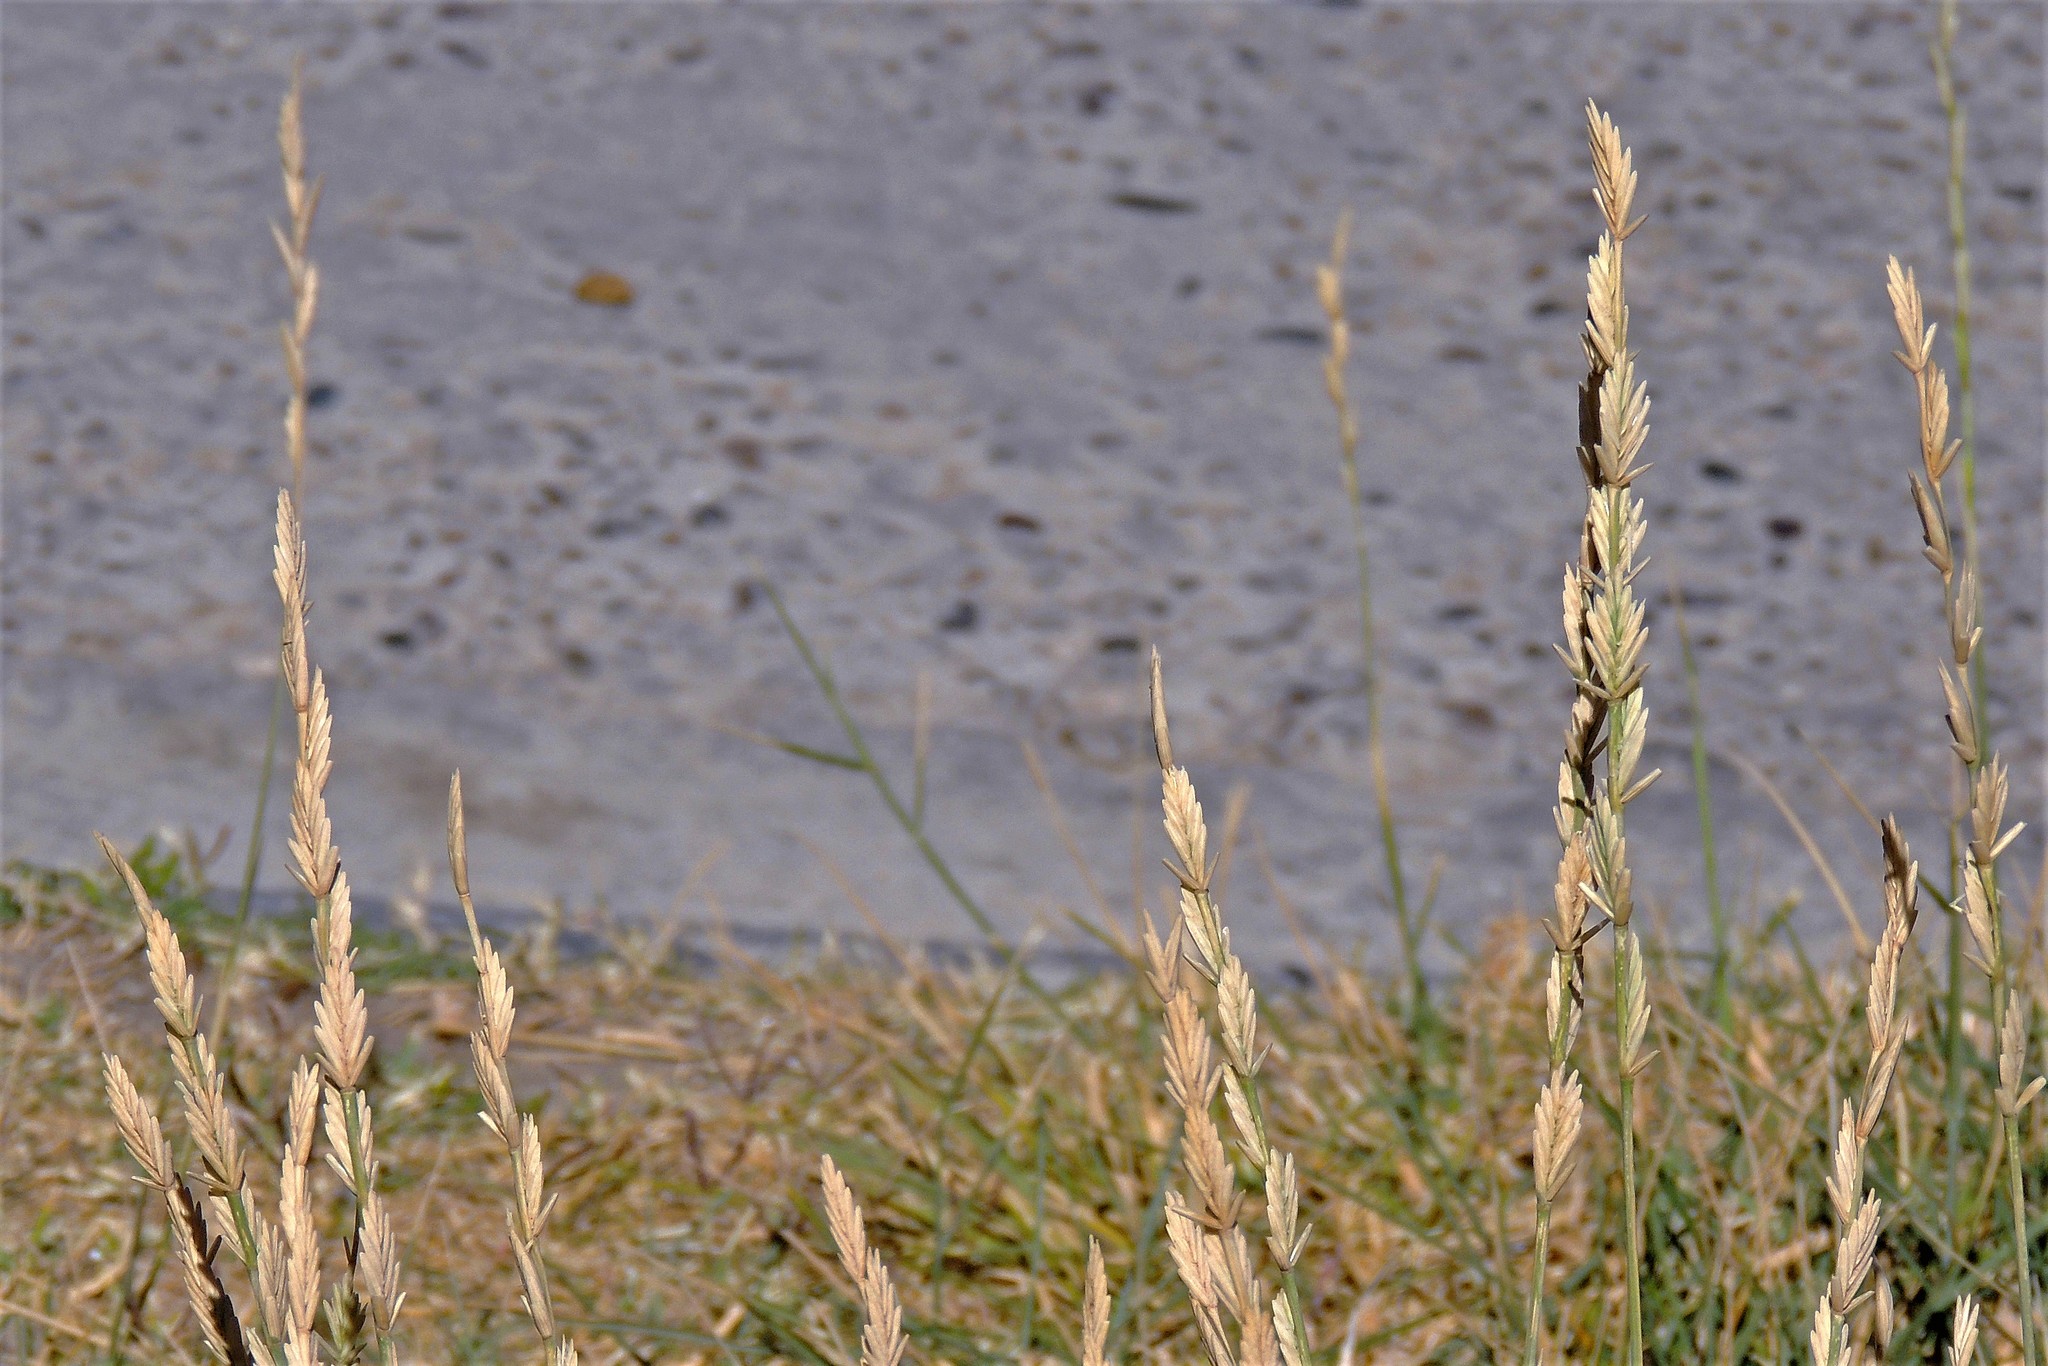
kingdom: Plantae
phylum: Tracheophyta
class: Liliopsida
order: Poales
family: Poaceae
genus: Thinopyrum
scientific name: Thinopyrum obtusiflorum
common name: Eurasian quackgrass
